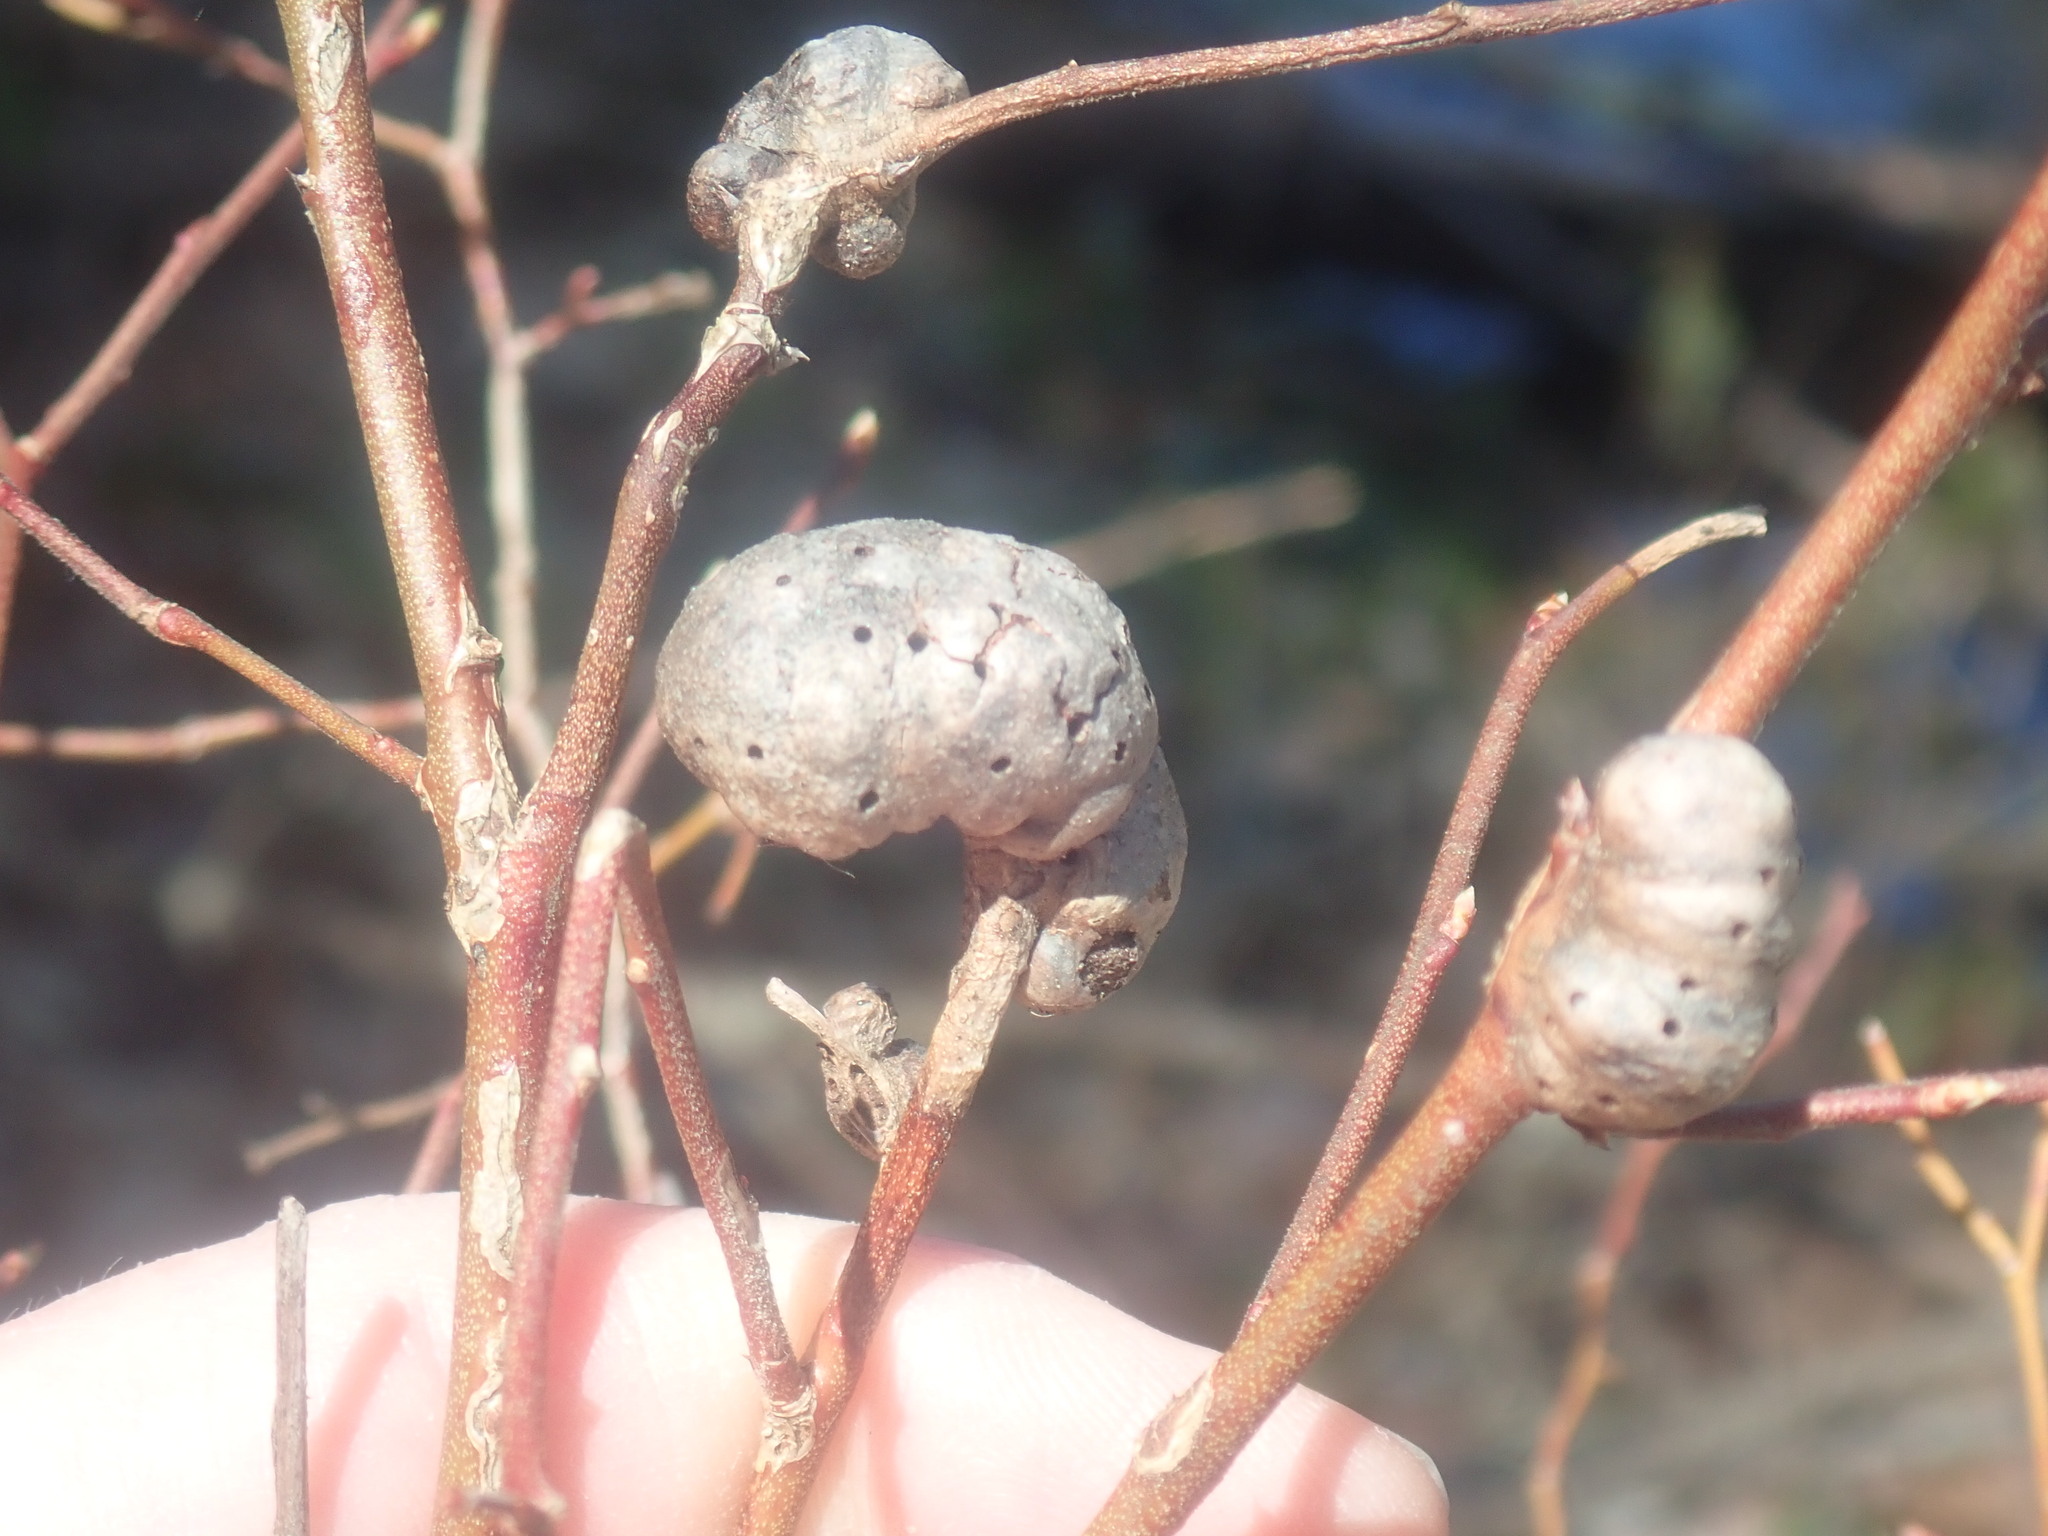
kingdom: Animalia
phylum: Arthropoda
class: Insecta
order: Hymenoptera
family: Pteromalidae
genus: Hemadas
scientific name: Hemadas nubilipennis
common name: Blueberry stem gall wasp
